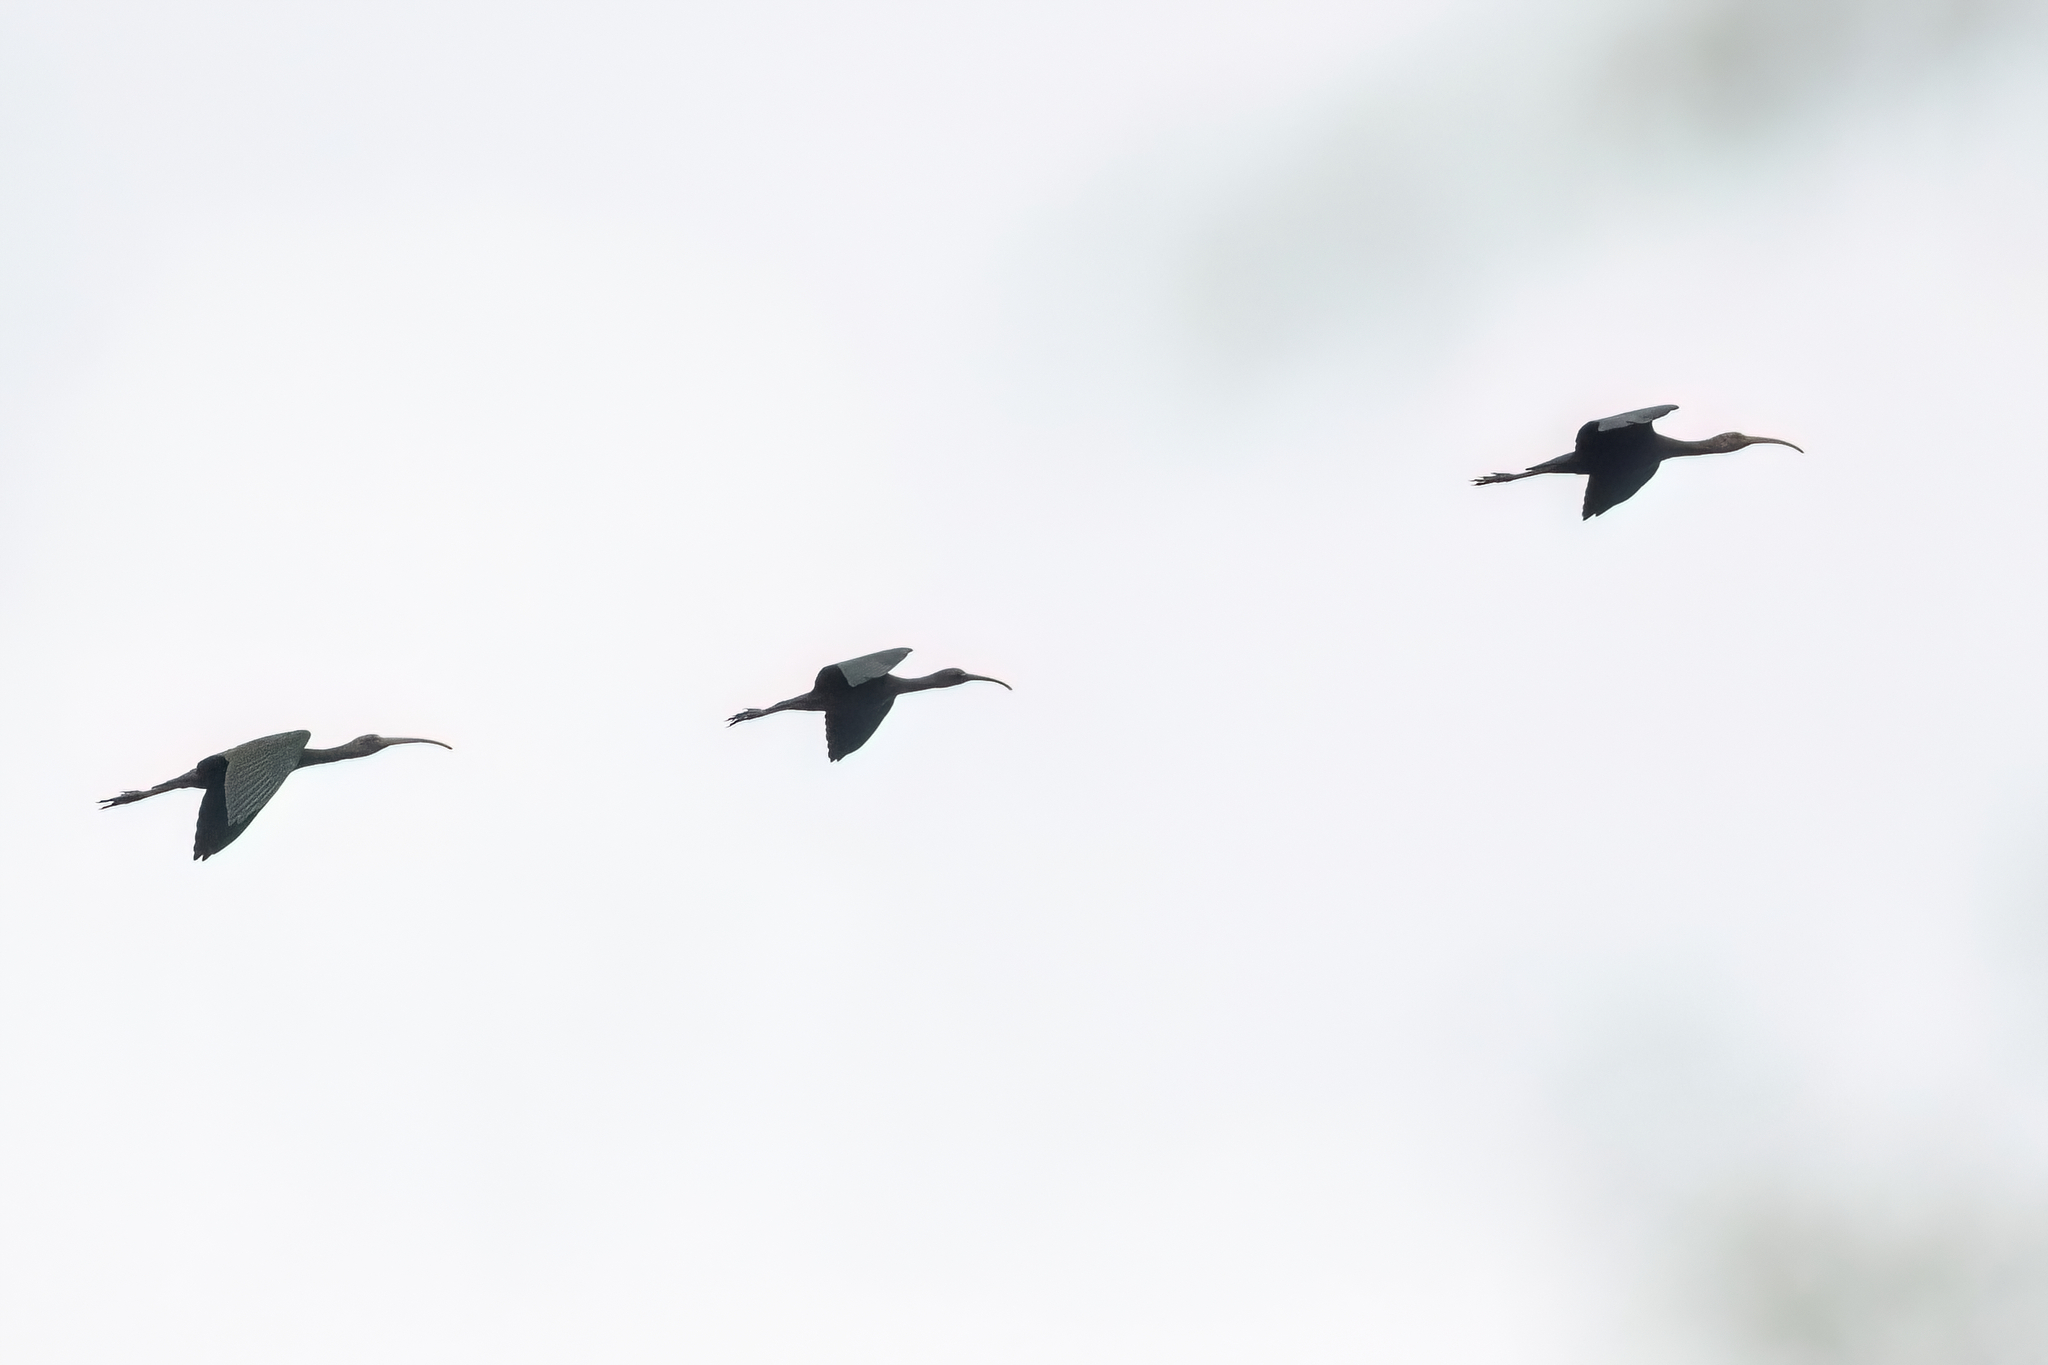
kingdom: Animalia
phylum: Chordata
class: Aves
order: Pelecaniformes
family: Threskiornithidae
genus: Plegadis
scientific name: Plegadis falcinellus
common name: Glossy ibis
